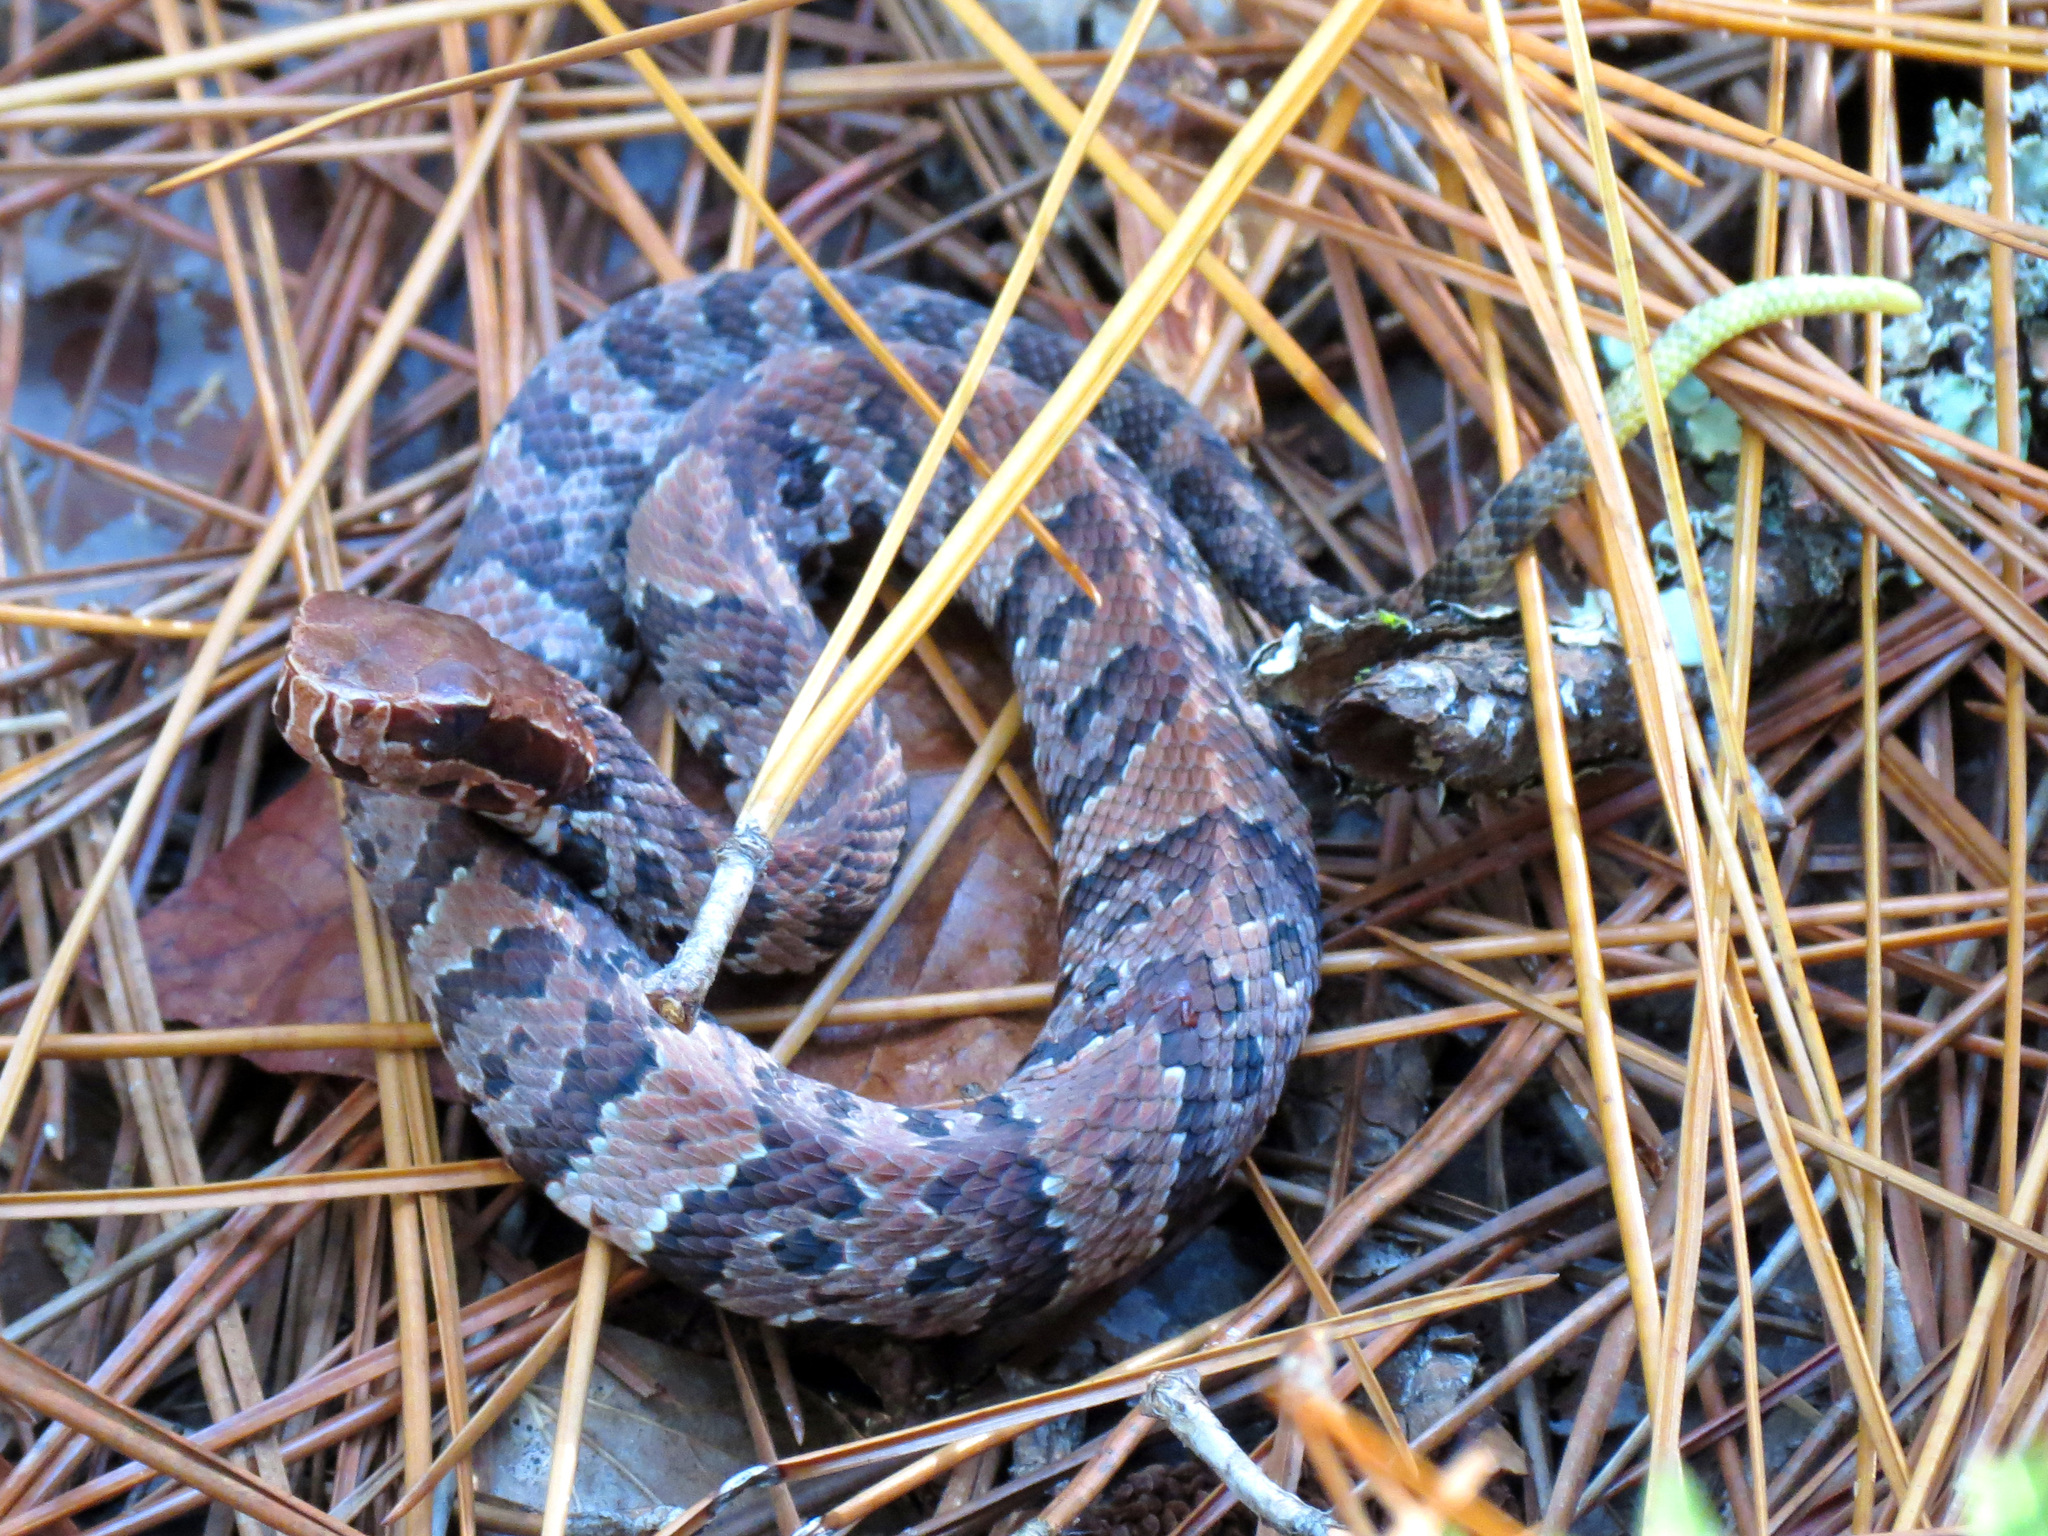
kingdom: Animalia
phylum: Chordata
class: Squamata
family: Viperidae
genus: Agkistrodon
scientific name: Agkistrodon conanti
